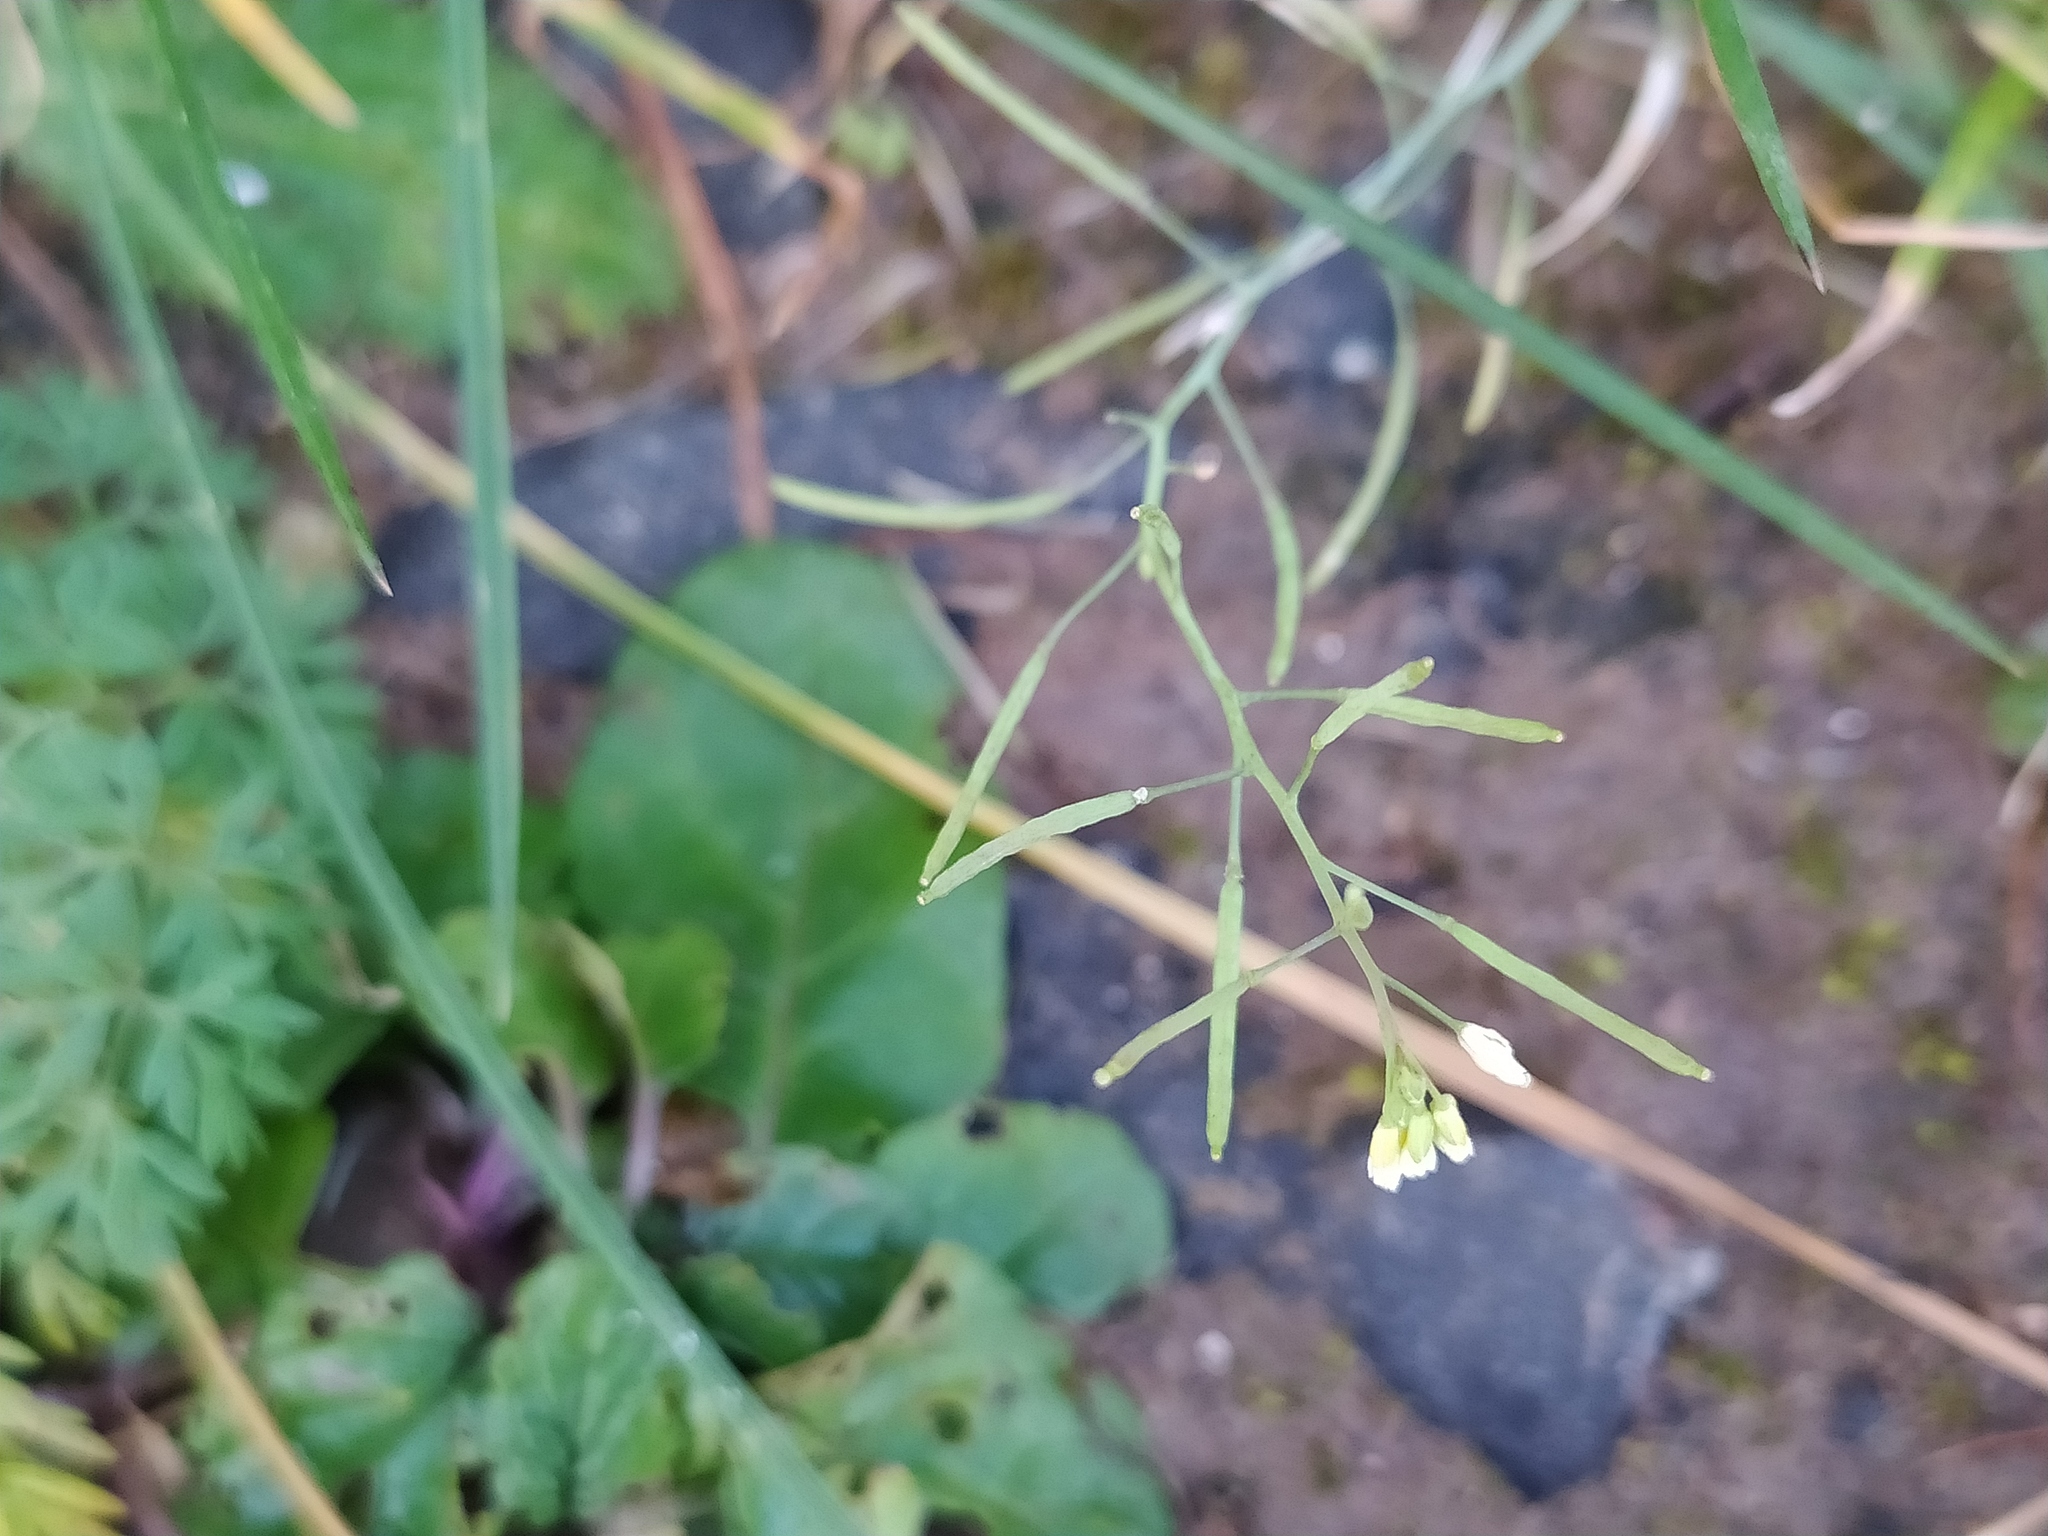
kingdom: Plantae
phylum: Tracheophyta
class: Magnoliopsida
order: Brassicales
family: Brassicaceae
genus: Arabidopsis
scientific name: Arabidopsis thaliana
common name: Thale cress
